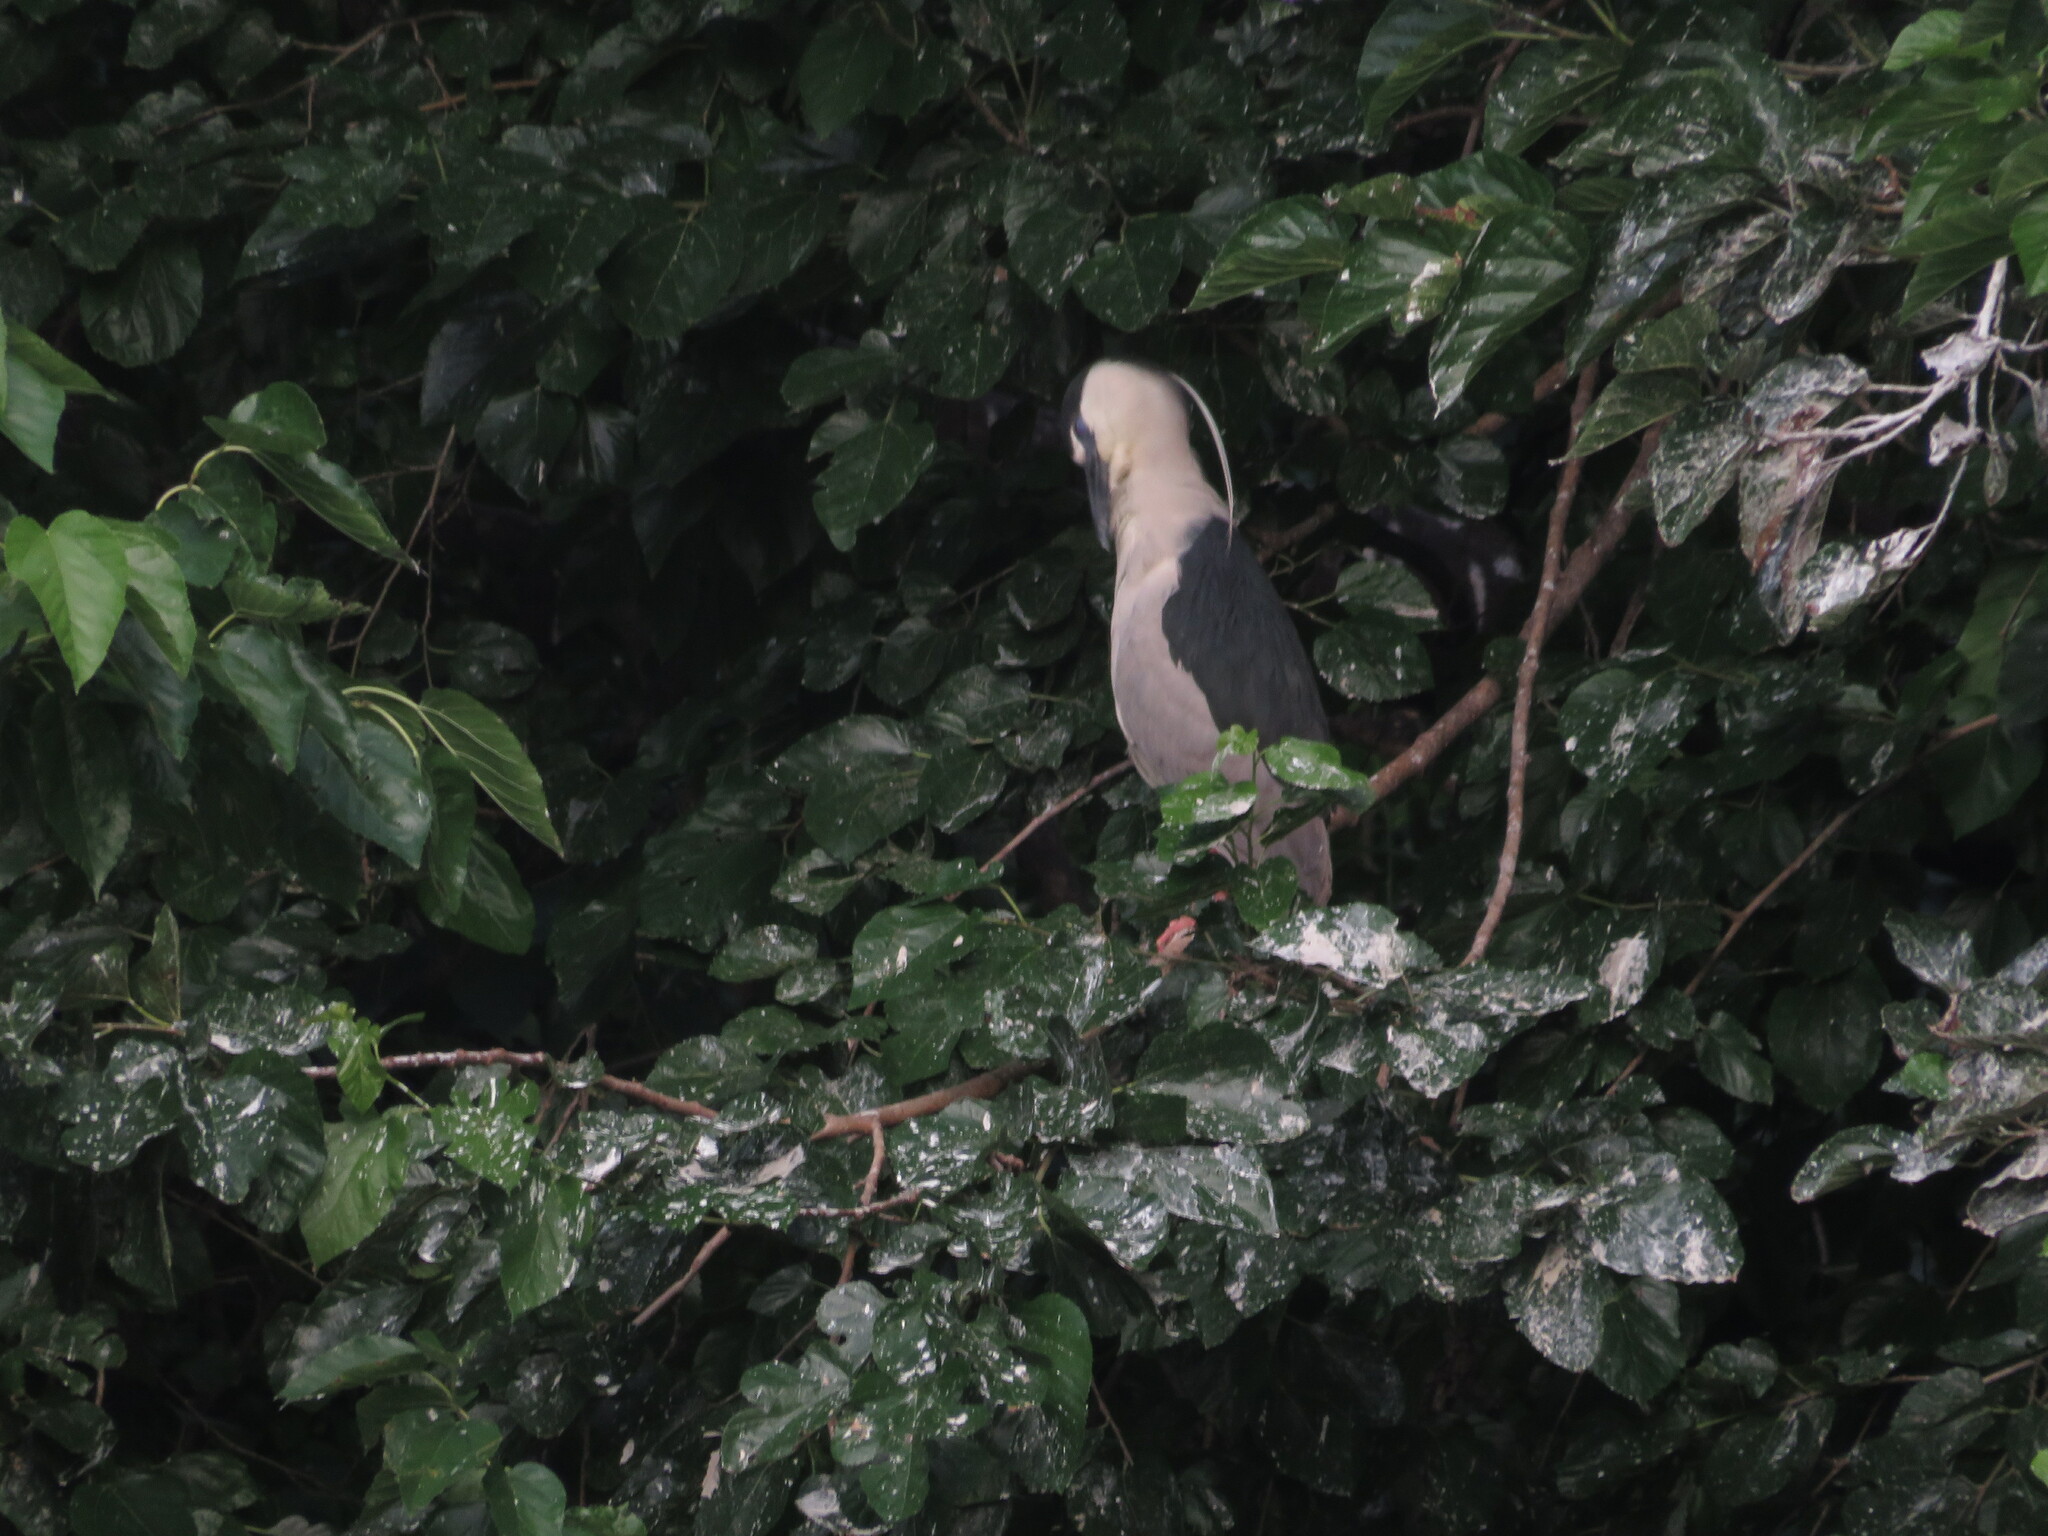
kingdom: Animalia
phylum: Chordata
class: Aves
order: Pelecaniformes
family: Ardeidae
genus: Nycticorax
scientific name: Nycticorax nycticorax
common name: Black-crowned night heron
